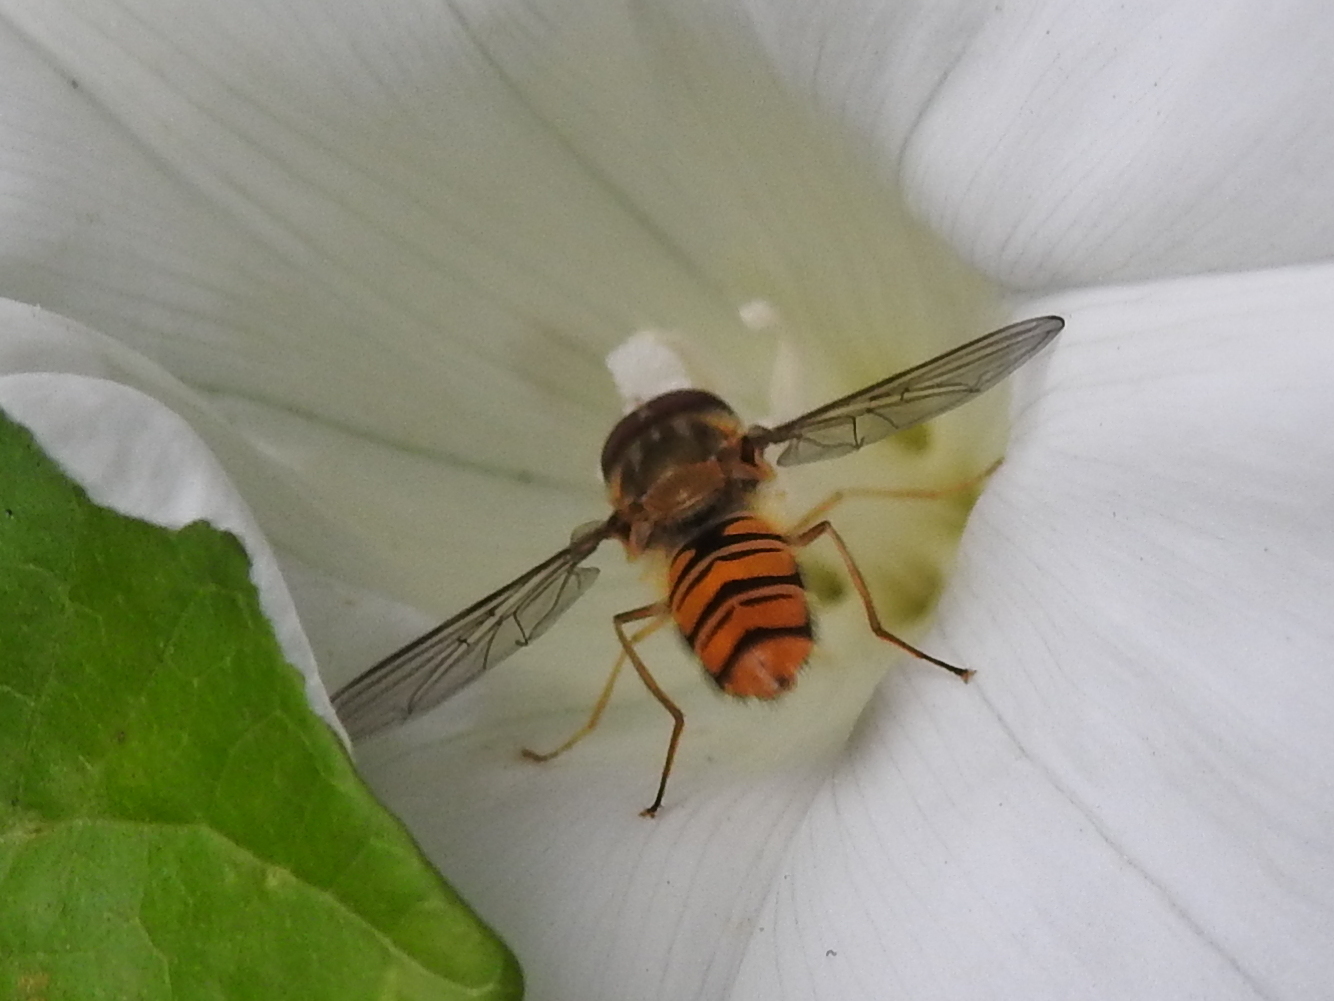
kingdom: Animalia
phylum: Arthropoda
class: Insecta
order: Diptera
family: Syrphidae
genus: Episyrphus
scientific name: Episyrphus balteatus
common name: Marmalade hoverfly
